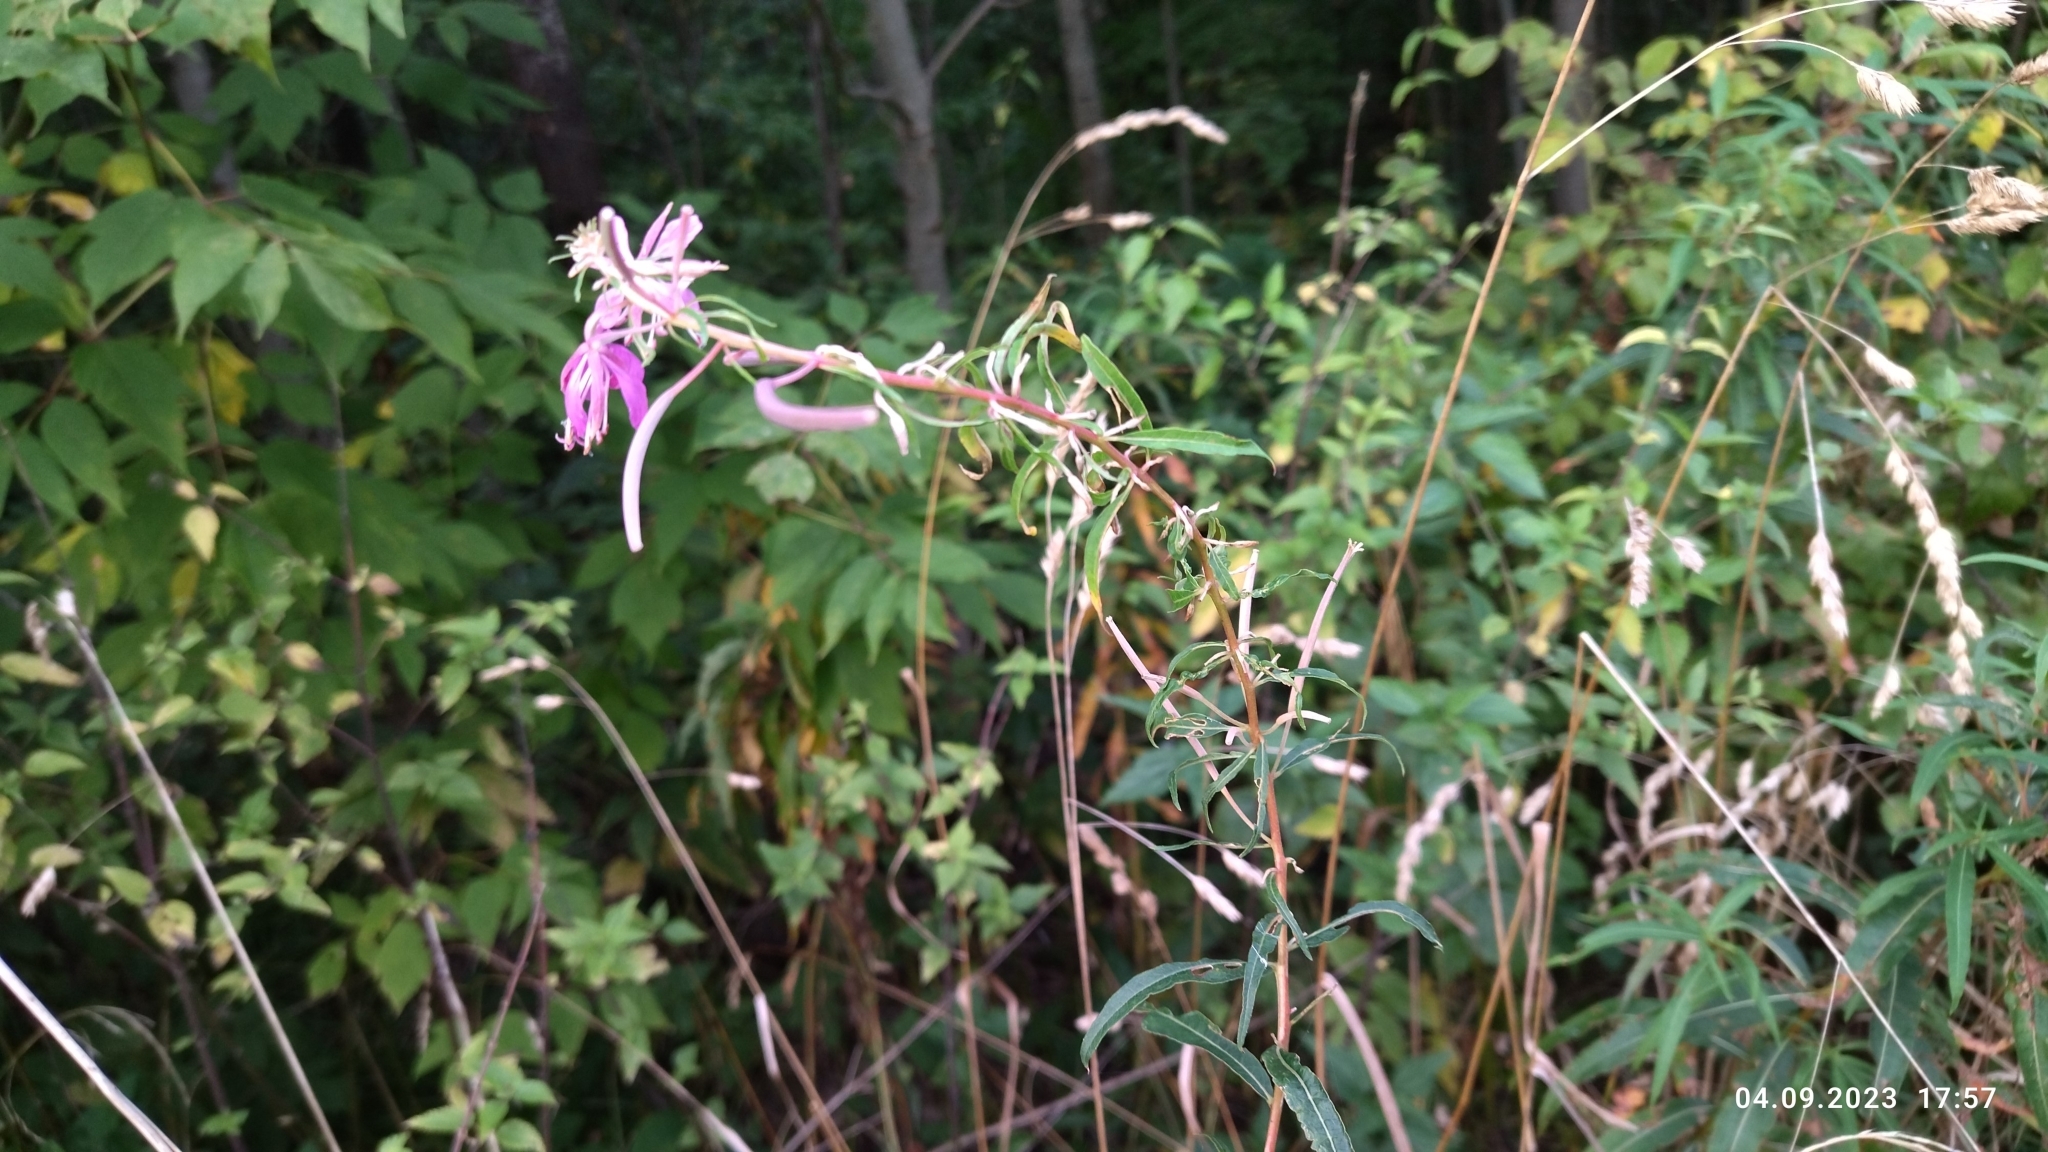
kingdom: Plantae
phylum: Tracheophyta
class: Magnoliopsida
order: Myrtales
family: Onagraceae
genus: Chamaenerion
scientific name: Chamaenerion angustifolium
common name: Fireweed
